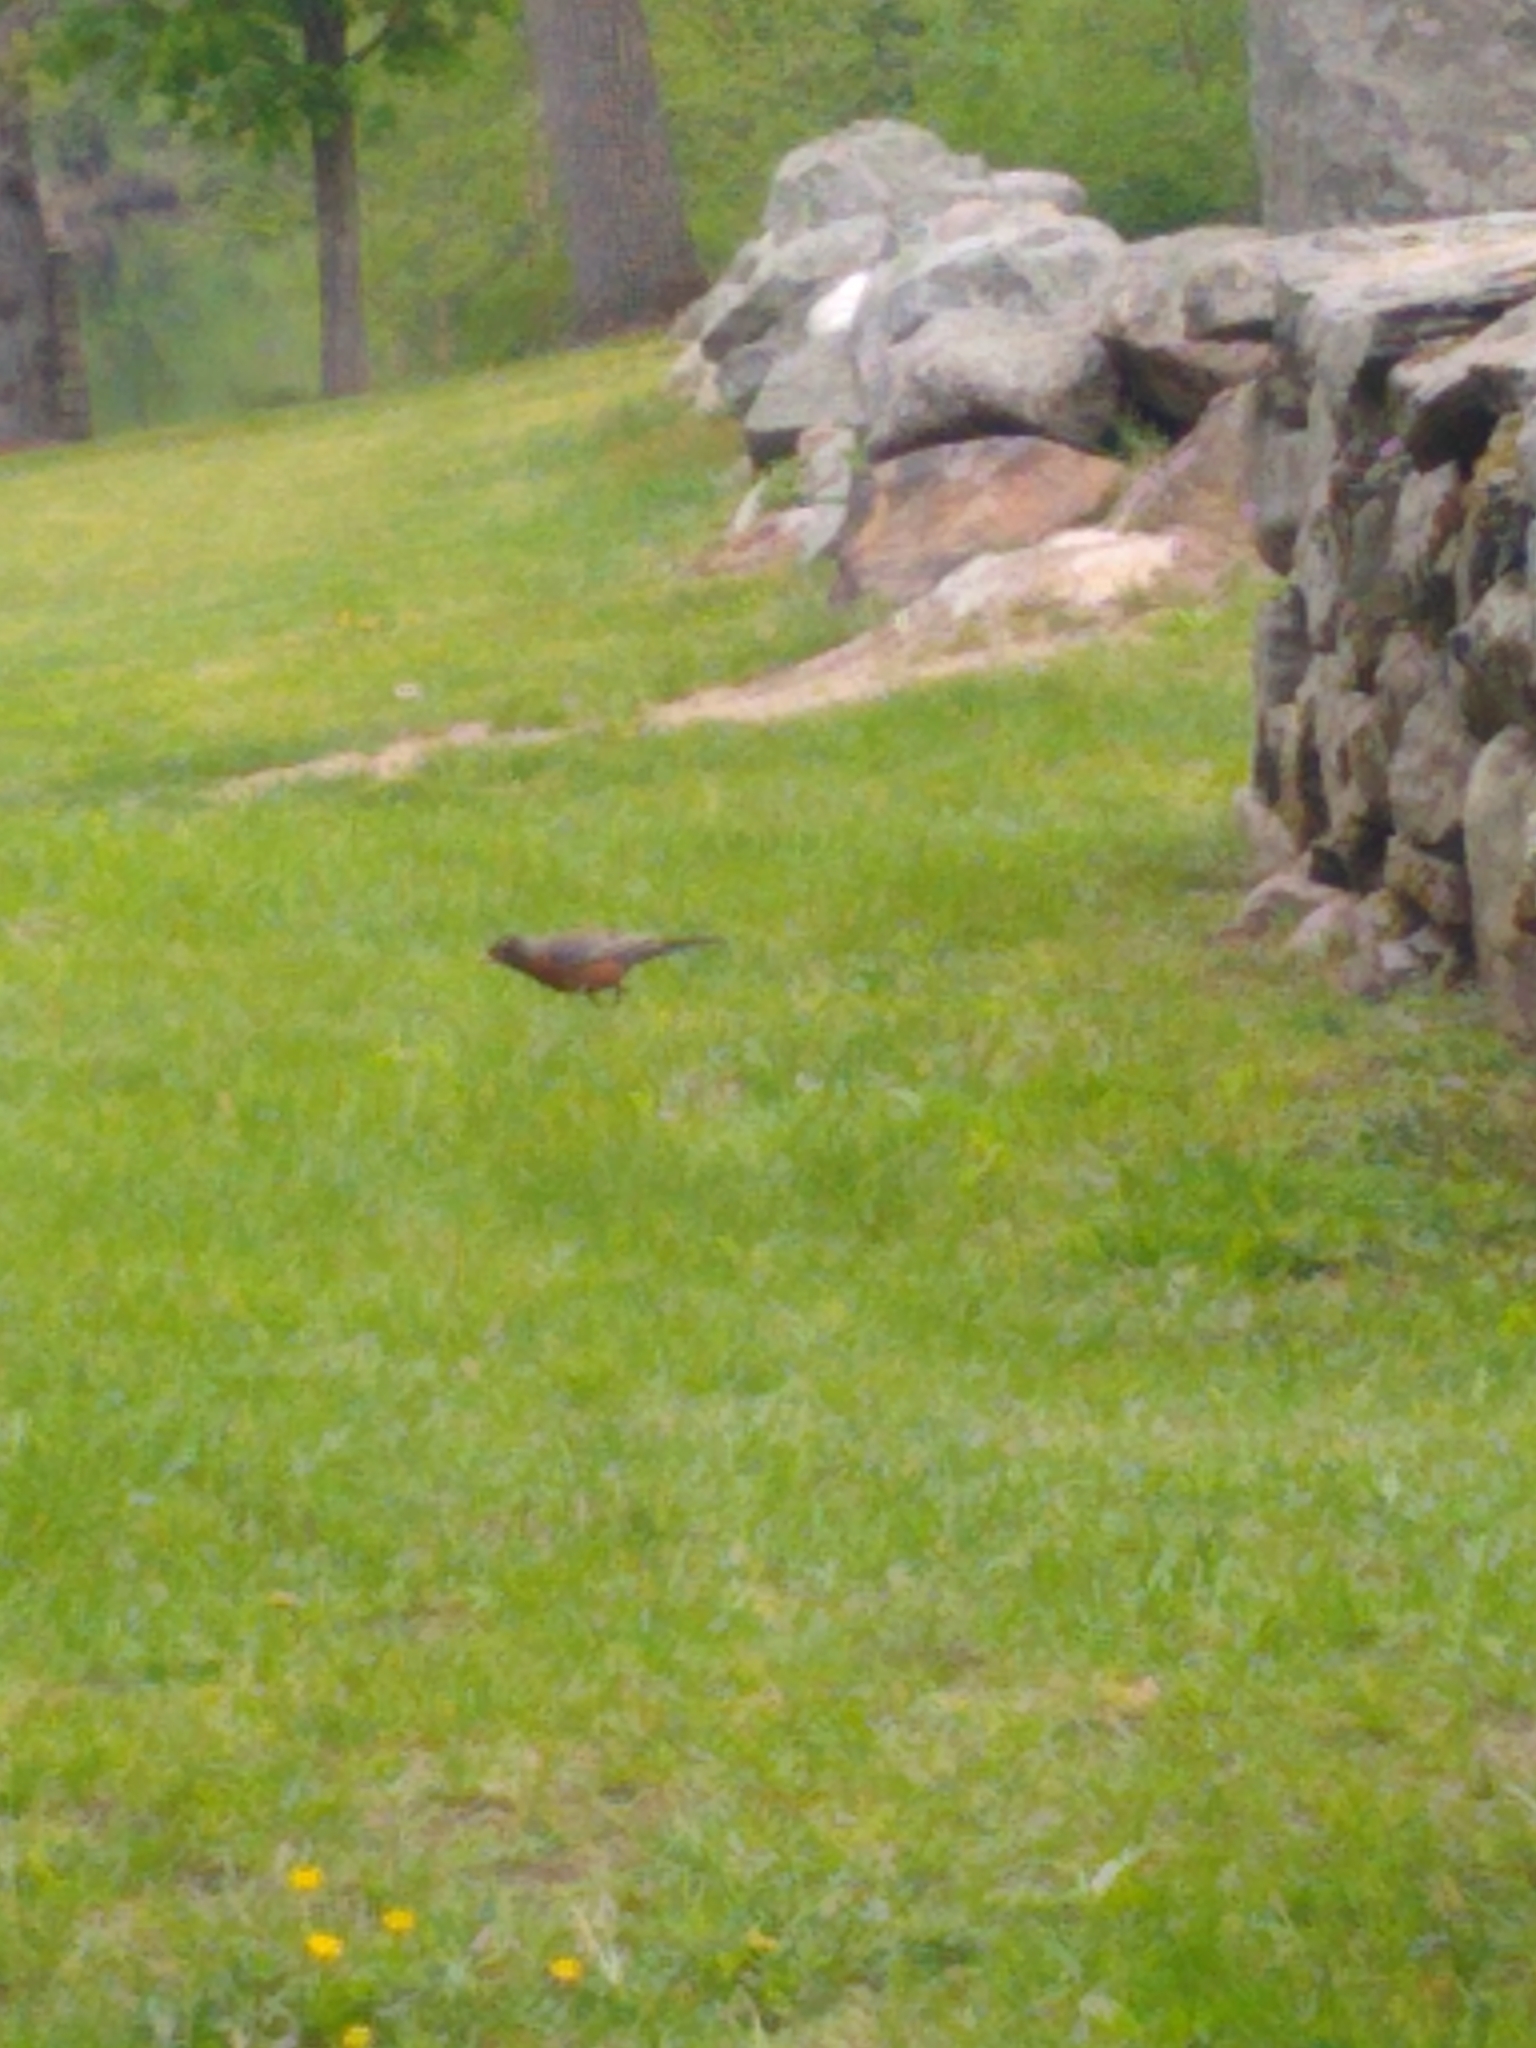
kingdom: Animalia
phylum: Chordata
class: Aves
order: Passeriformes
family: Turdidae
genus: Turdus
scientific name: Turdus migratorius
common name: American robin
